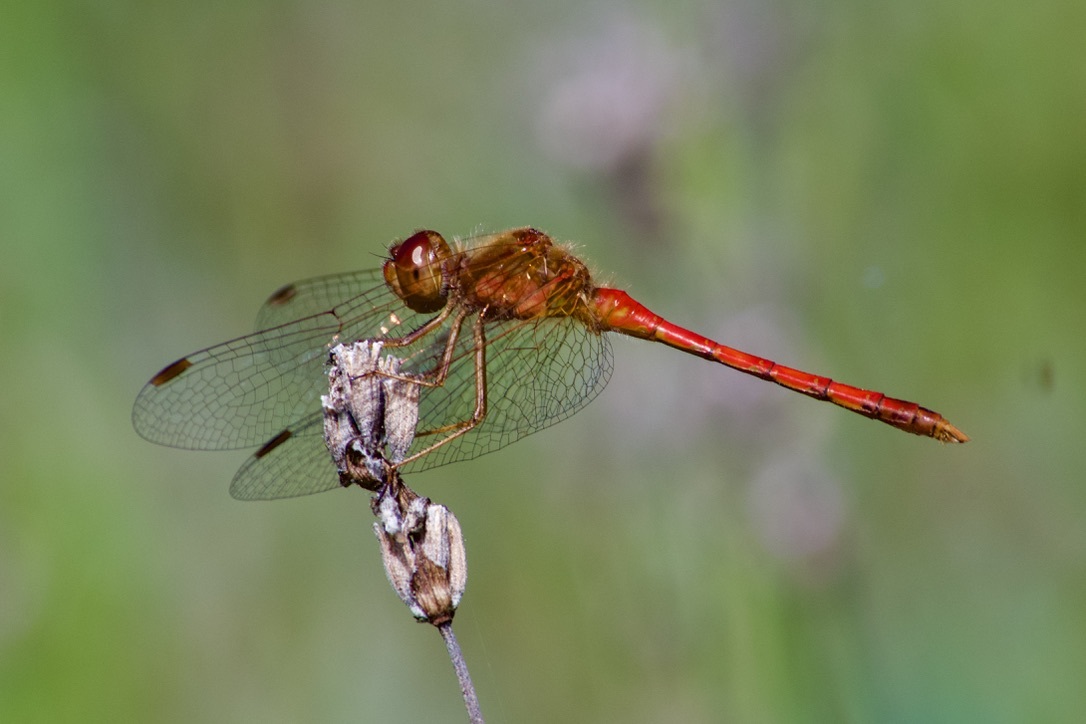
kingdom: Animalia
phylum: Arthropoda
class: Insecta
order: Odonata
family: Libellulidae
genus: Sympetrum
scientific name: Sympetrum vicinum
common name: Autumn meadowhawk
